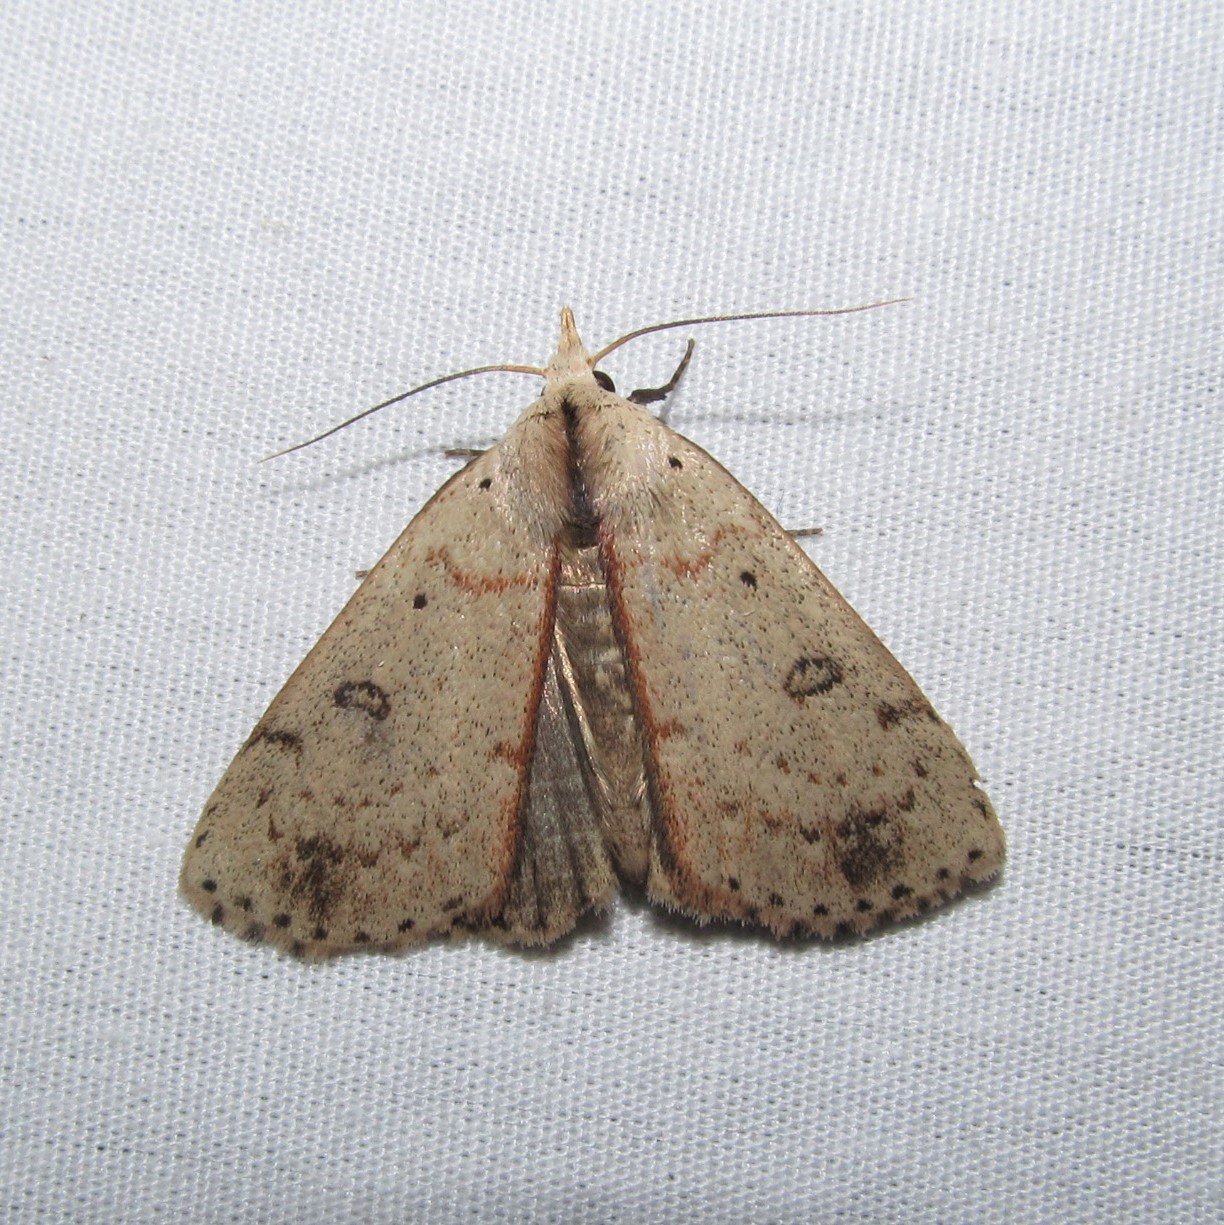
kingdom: Animalia
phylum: Arthropoda
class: Insecta
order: Lepidoptera
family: Erebidae
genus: Scolecocampa
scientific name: Scolecocampa liburna
